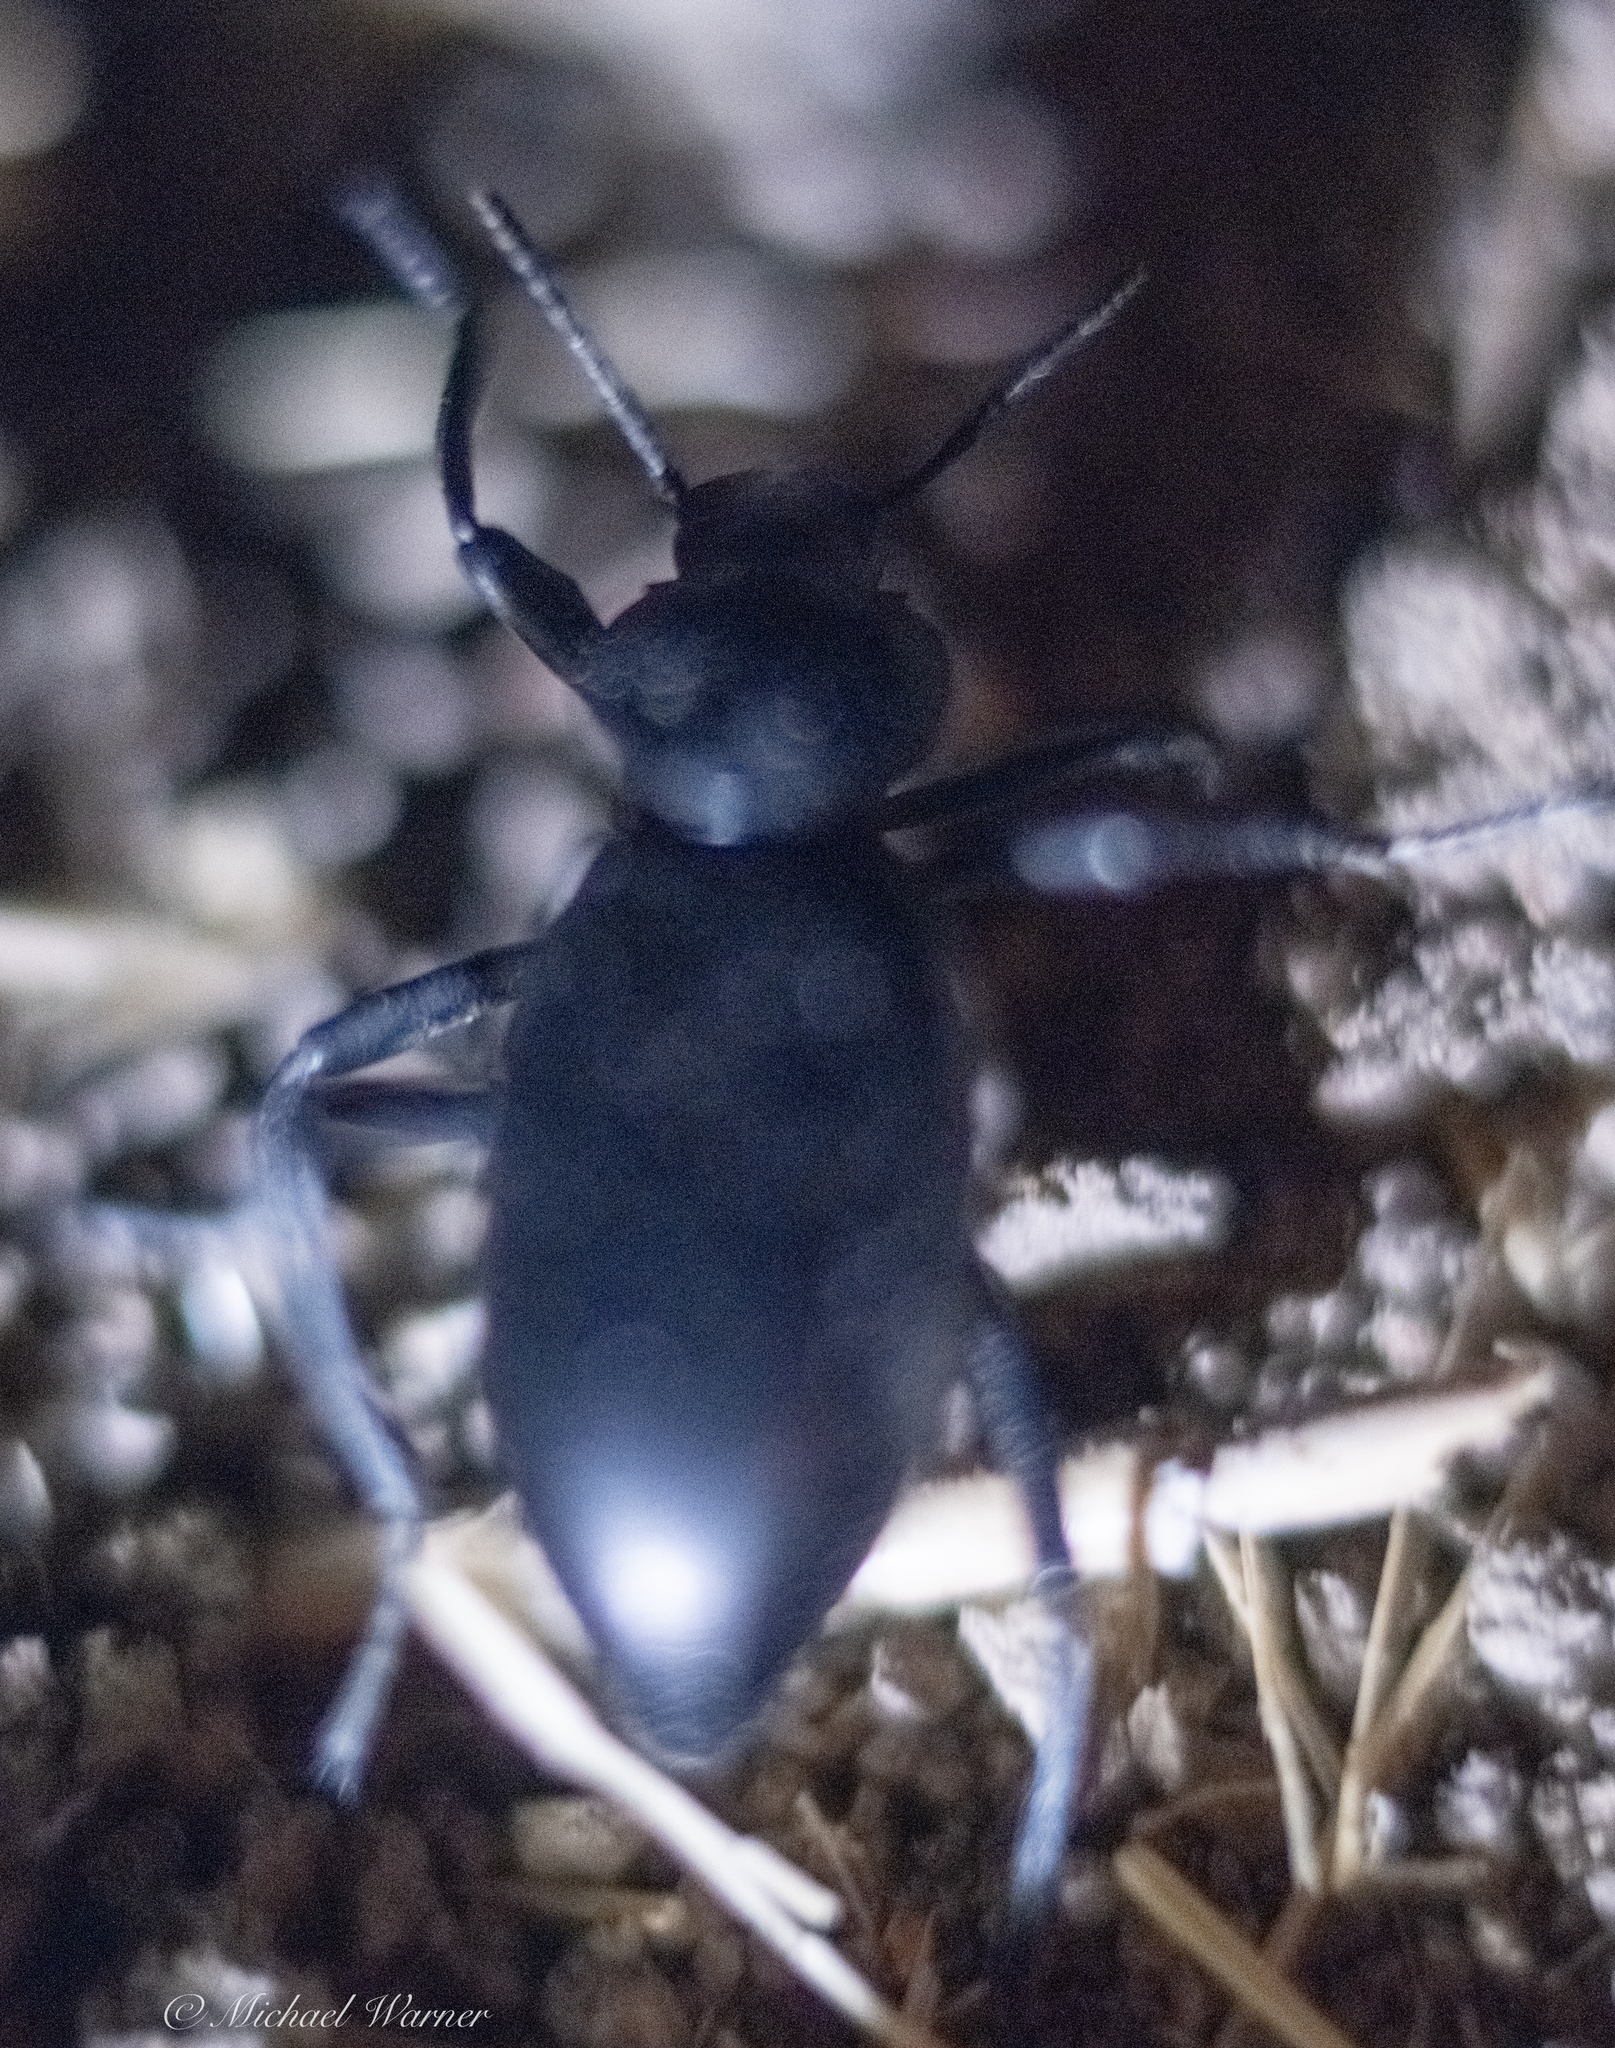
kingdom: Animalia
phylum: Arthropoda
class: Insecta
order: Coleoptera
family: Tenebrionidae
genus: Eleodes
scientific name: Eleodes dentipes
